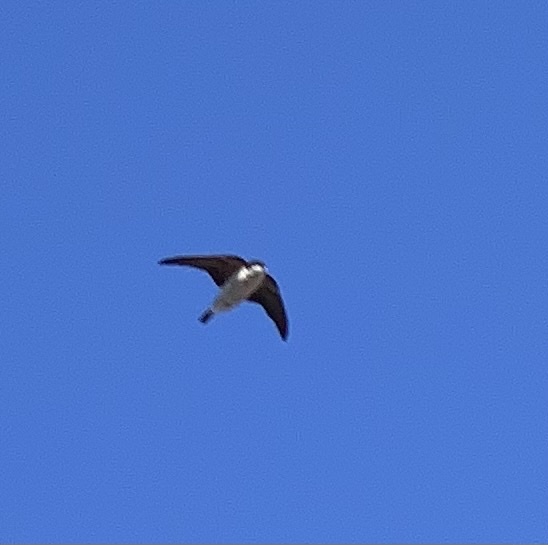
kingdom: Animalia
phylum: Chordata
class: Aves
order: Passeriformes
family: Hirundinidae
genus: Delichon
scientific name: Delichon urbicum
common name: Common house martin
